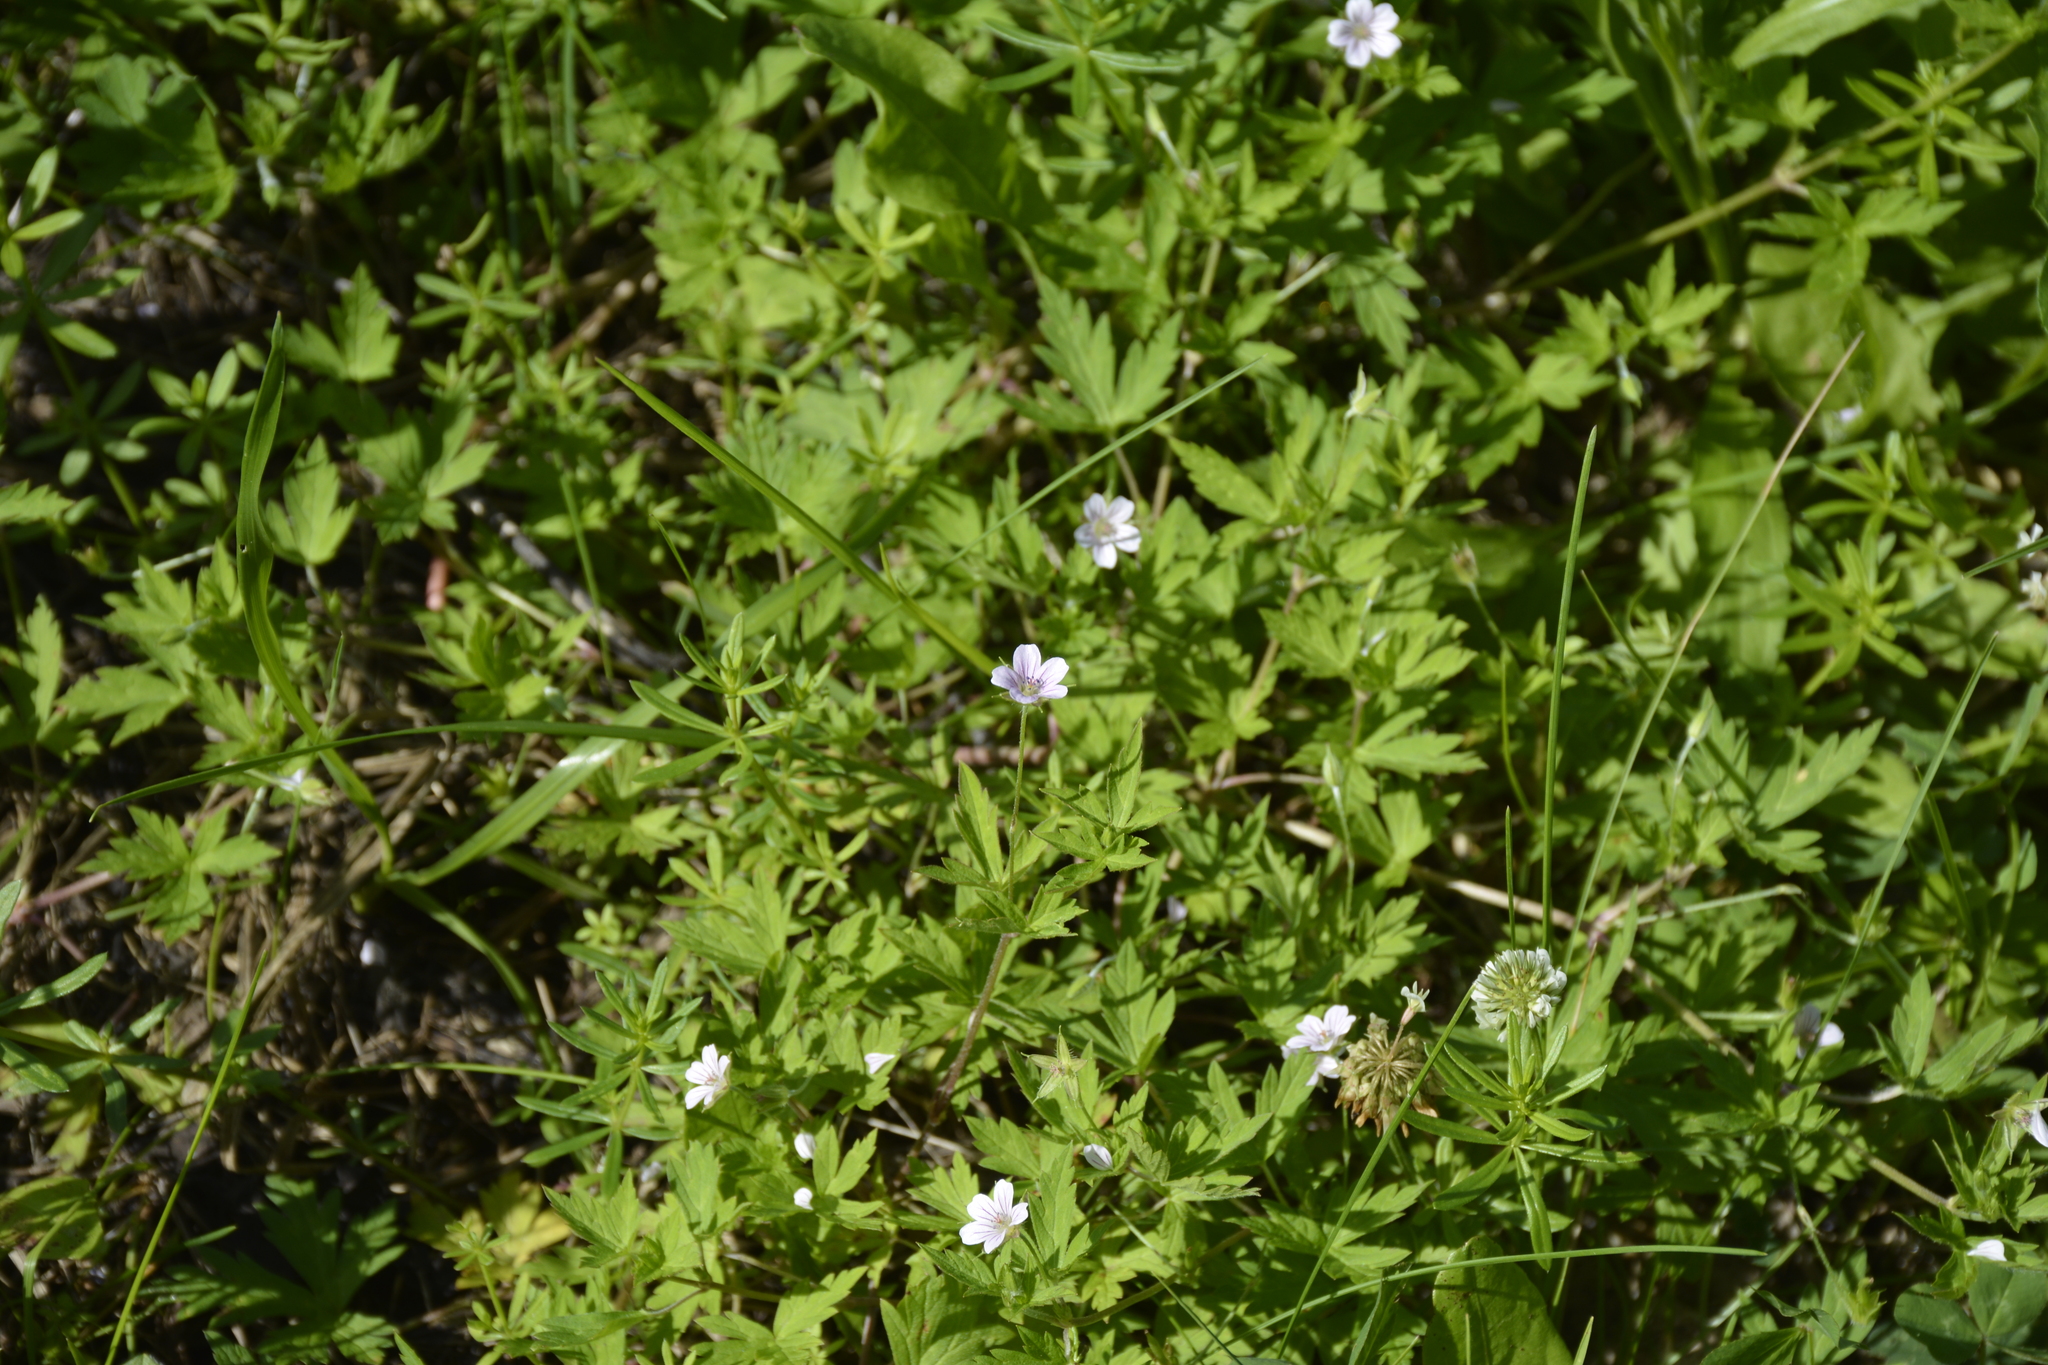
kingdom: Plantae
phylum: Tracheophyta
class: Magnoliopsida
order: Geraniales
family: Geraniaceae
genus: Geranium
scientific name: Geranium sibiricum
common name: Siberian crane's-bill
